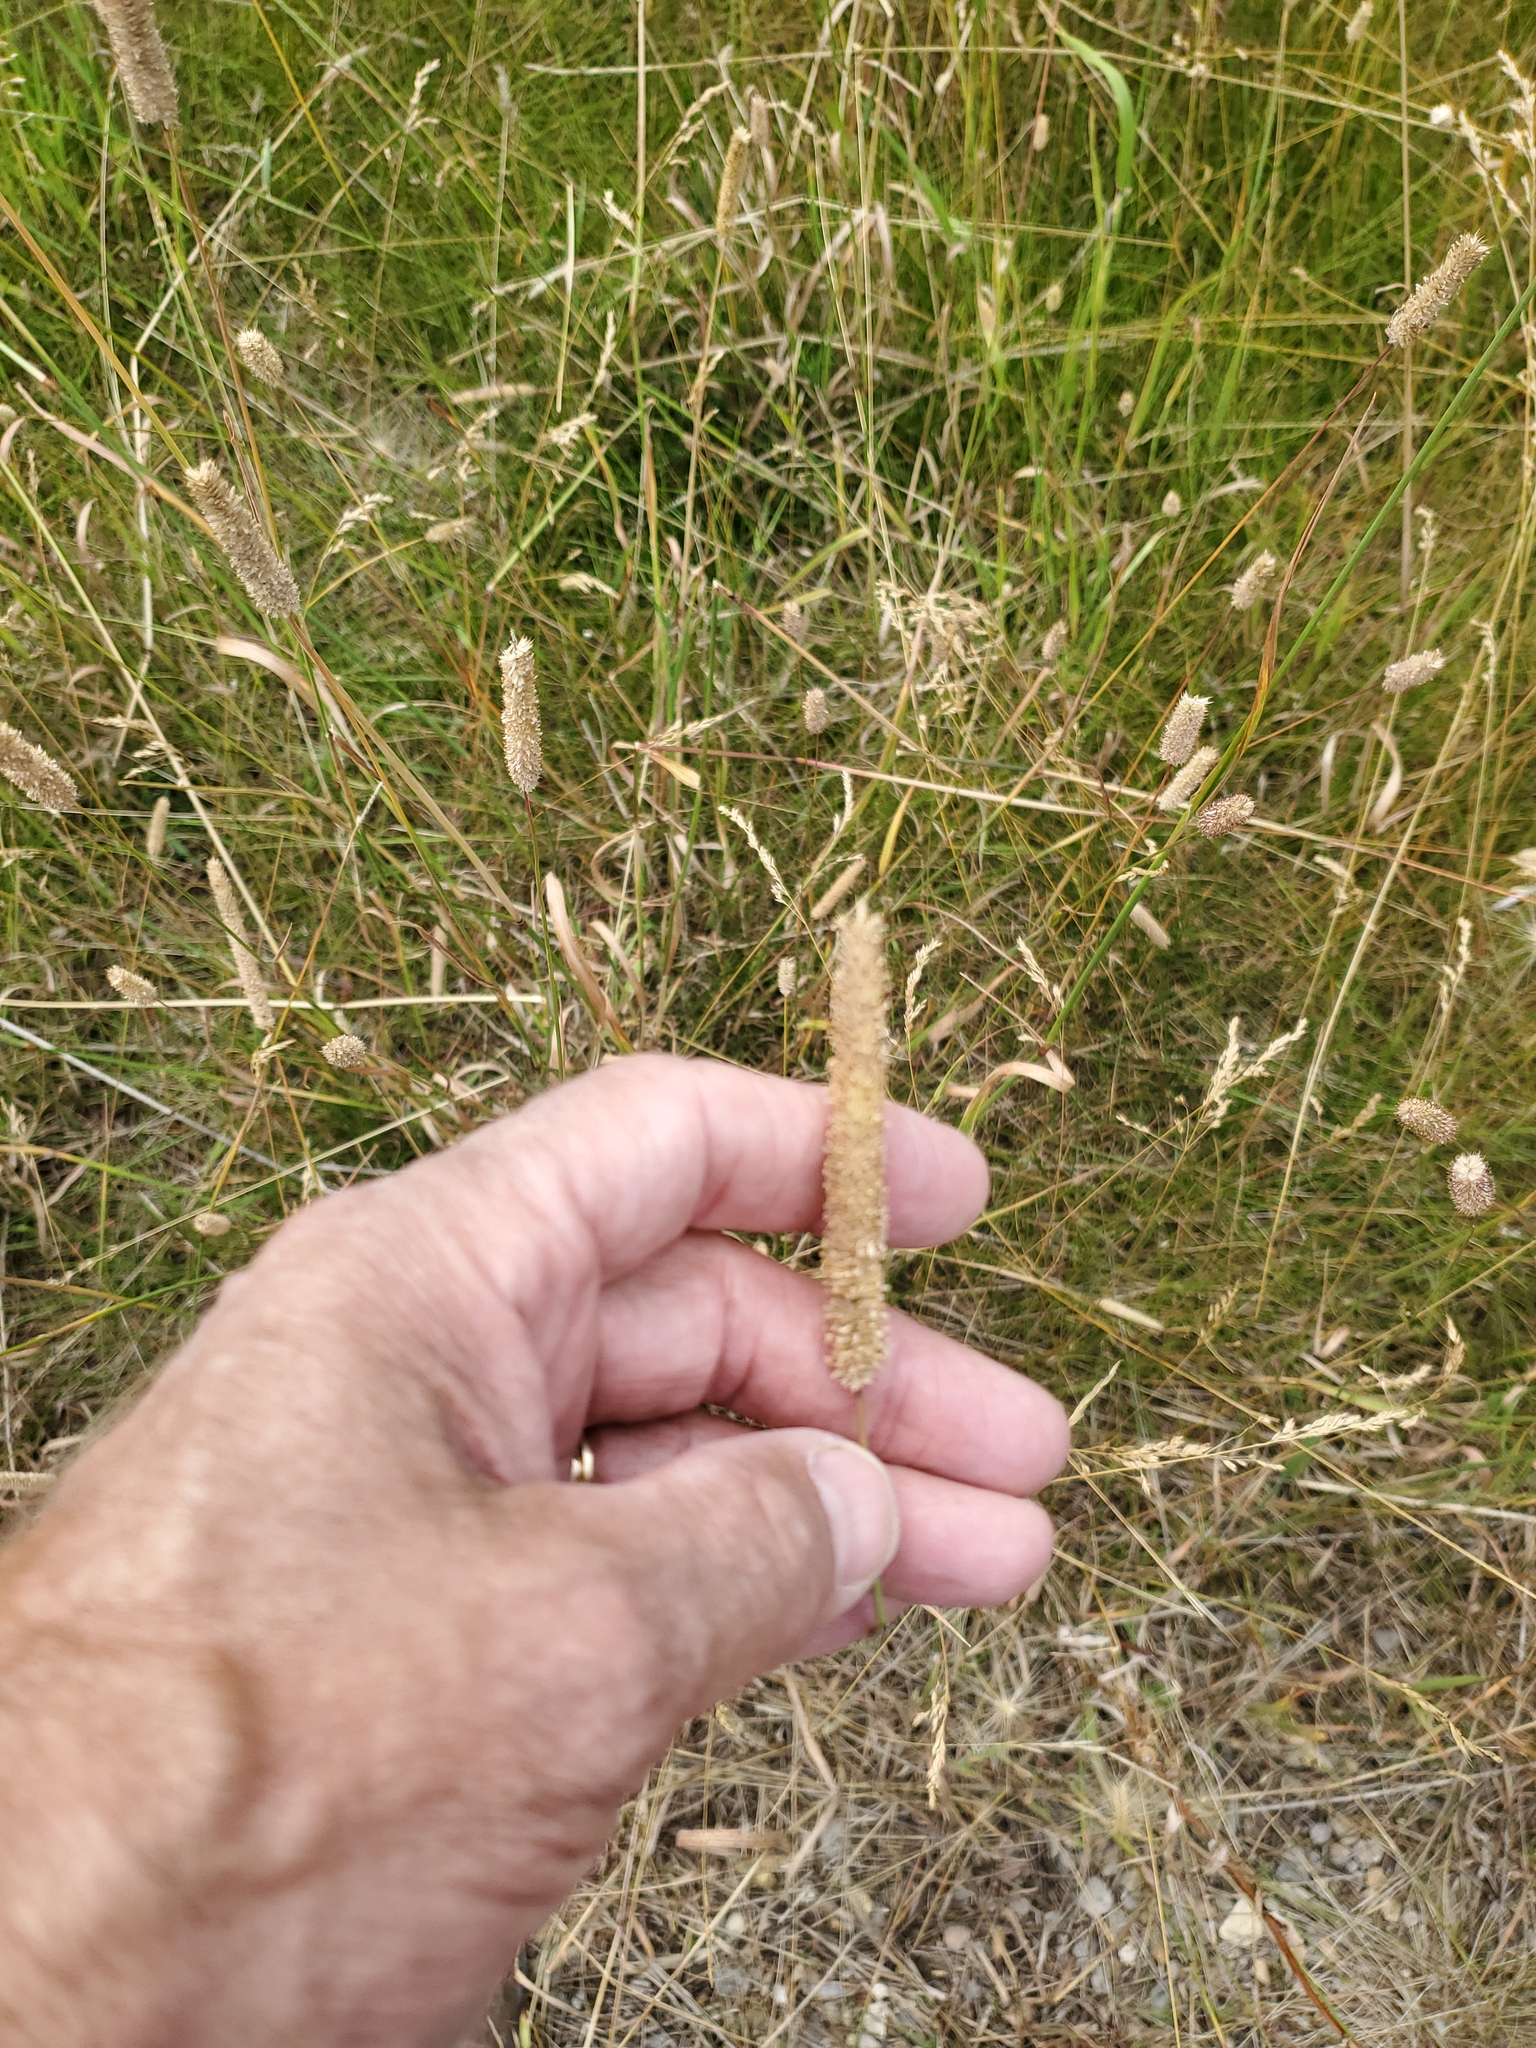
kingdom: Plantae
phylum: Tracheophyta
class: Liliopsida
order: Poales
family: Poaceae
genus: Phleum
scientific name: Phleum pratense
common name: Timothy grass
